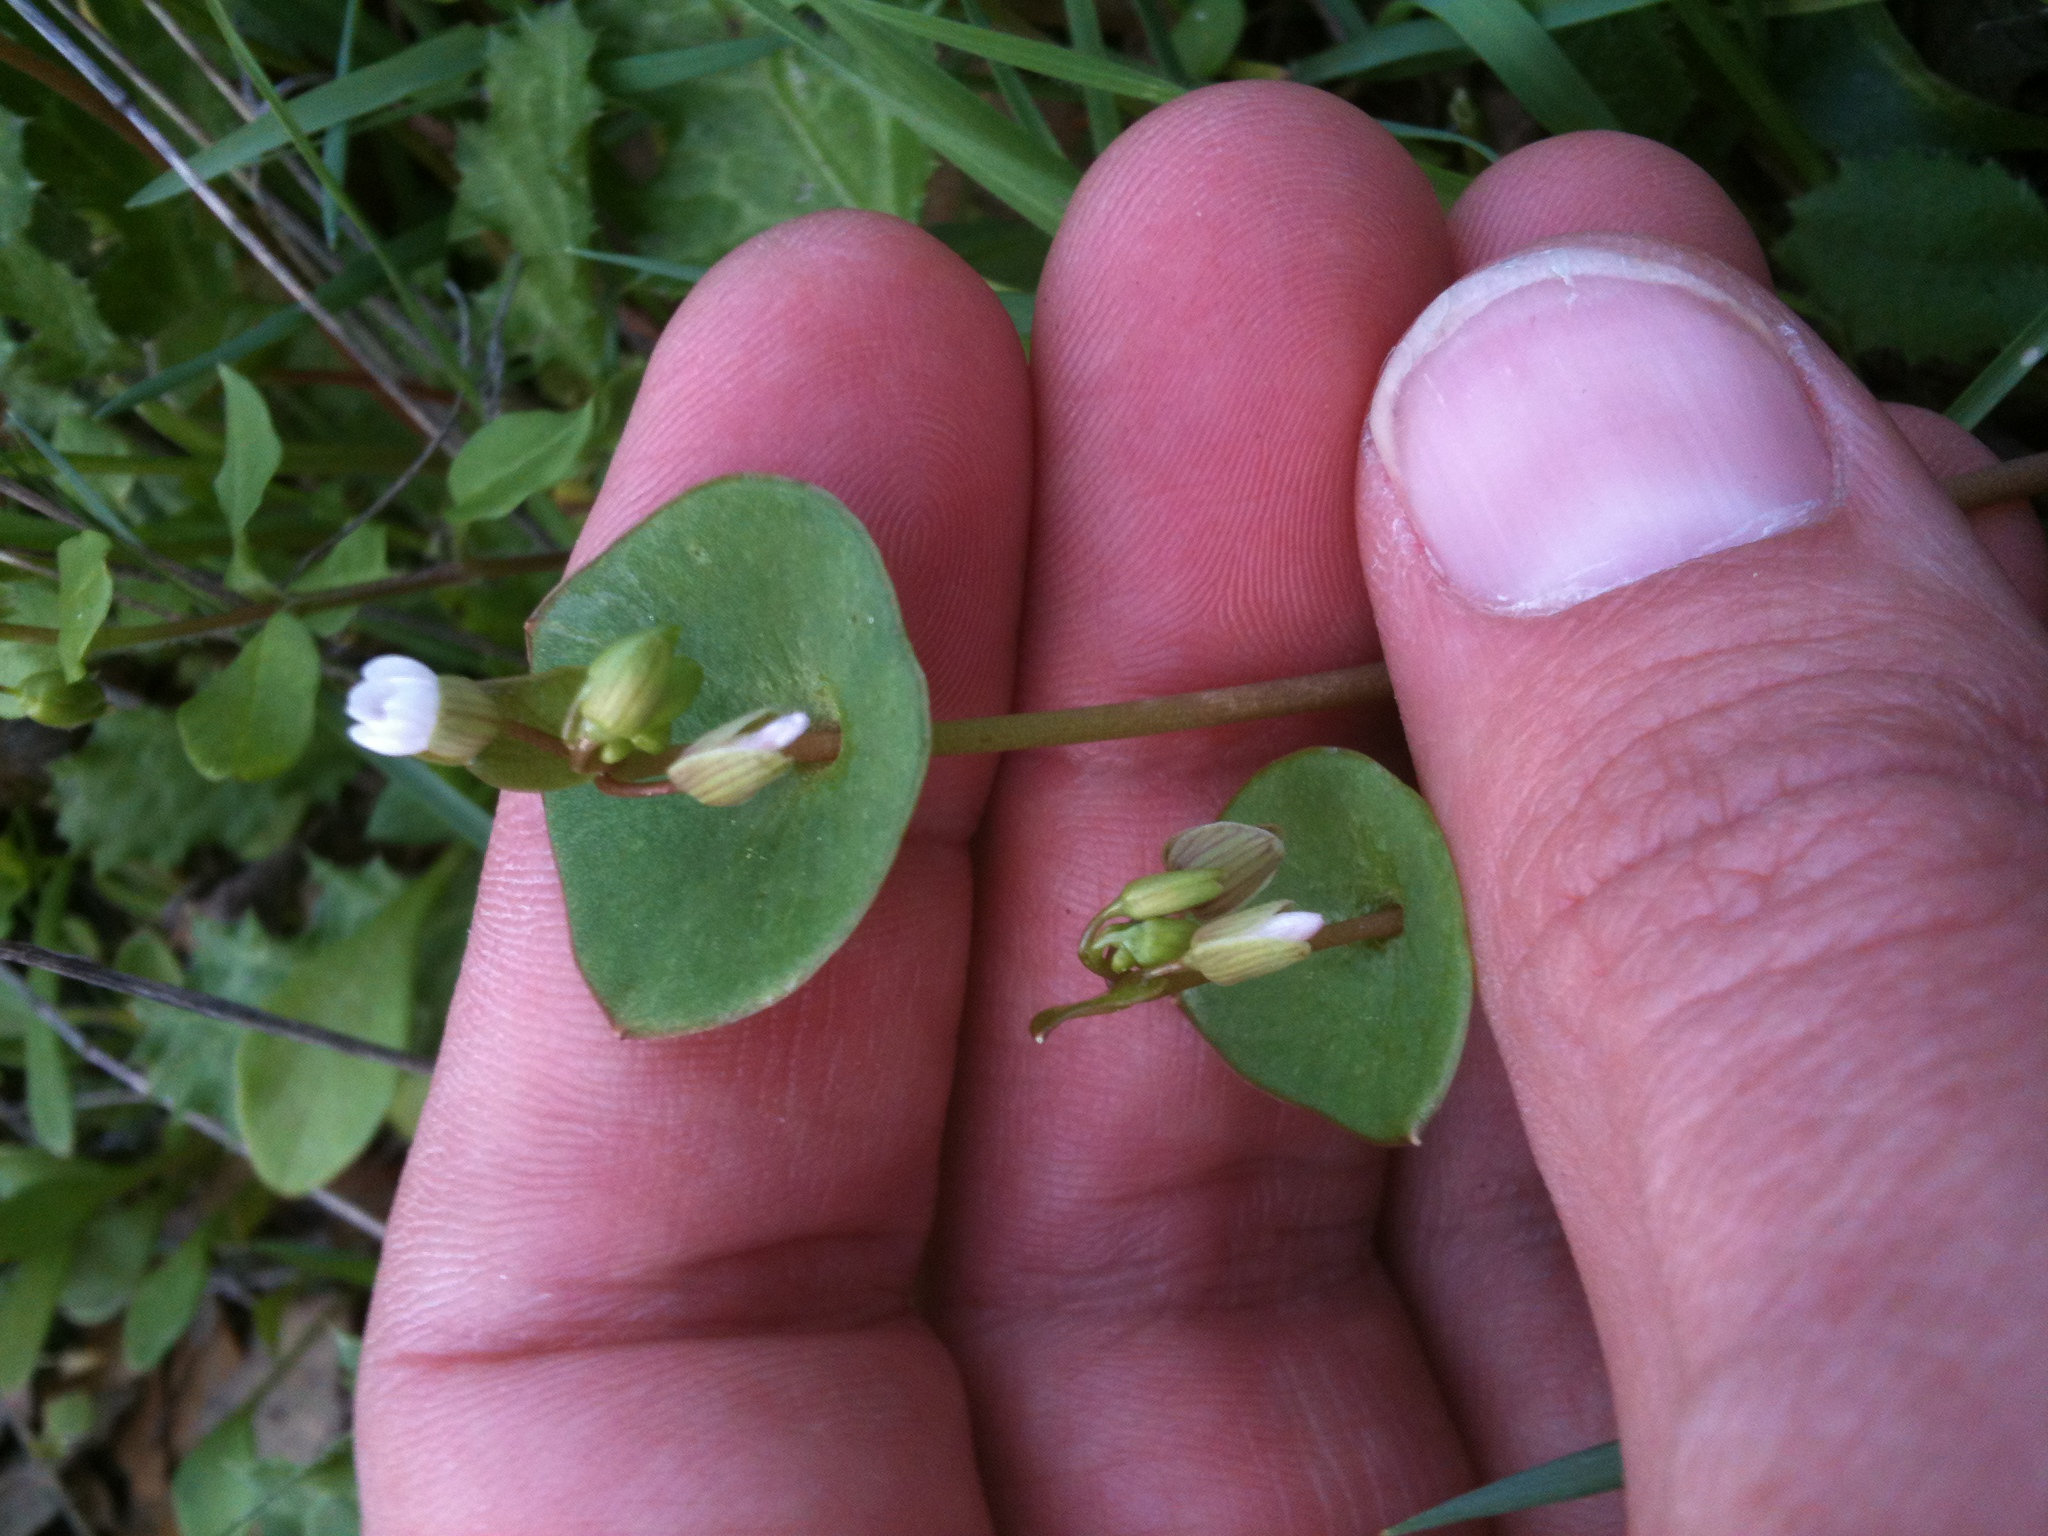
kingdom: Plantae
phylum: Tracheophyta
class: Magnoliopsida
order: Caryophyllales
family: Montiaceae
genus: Claytonia
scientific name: Claytonia perfoliata
